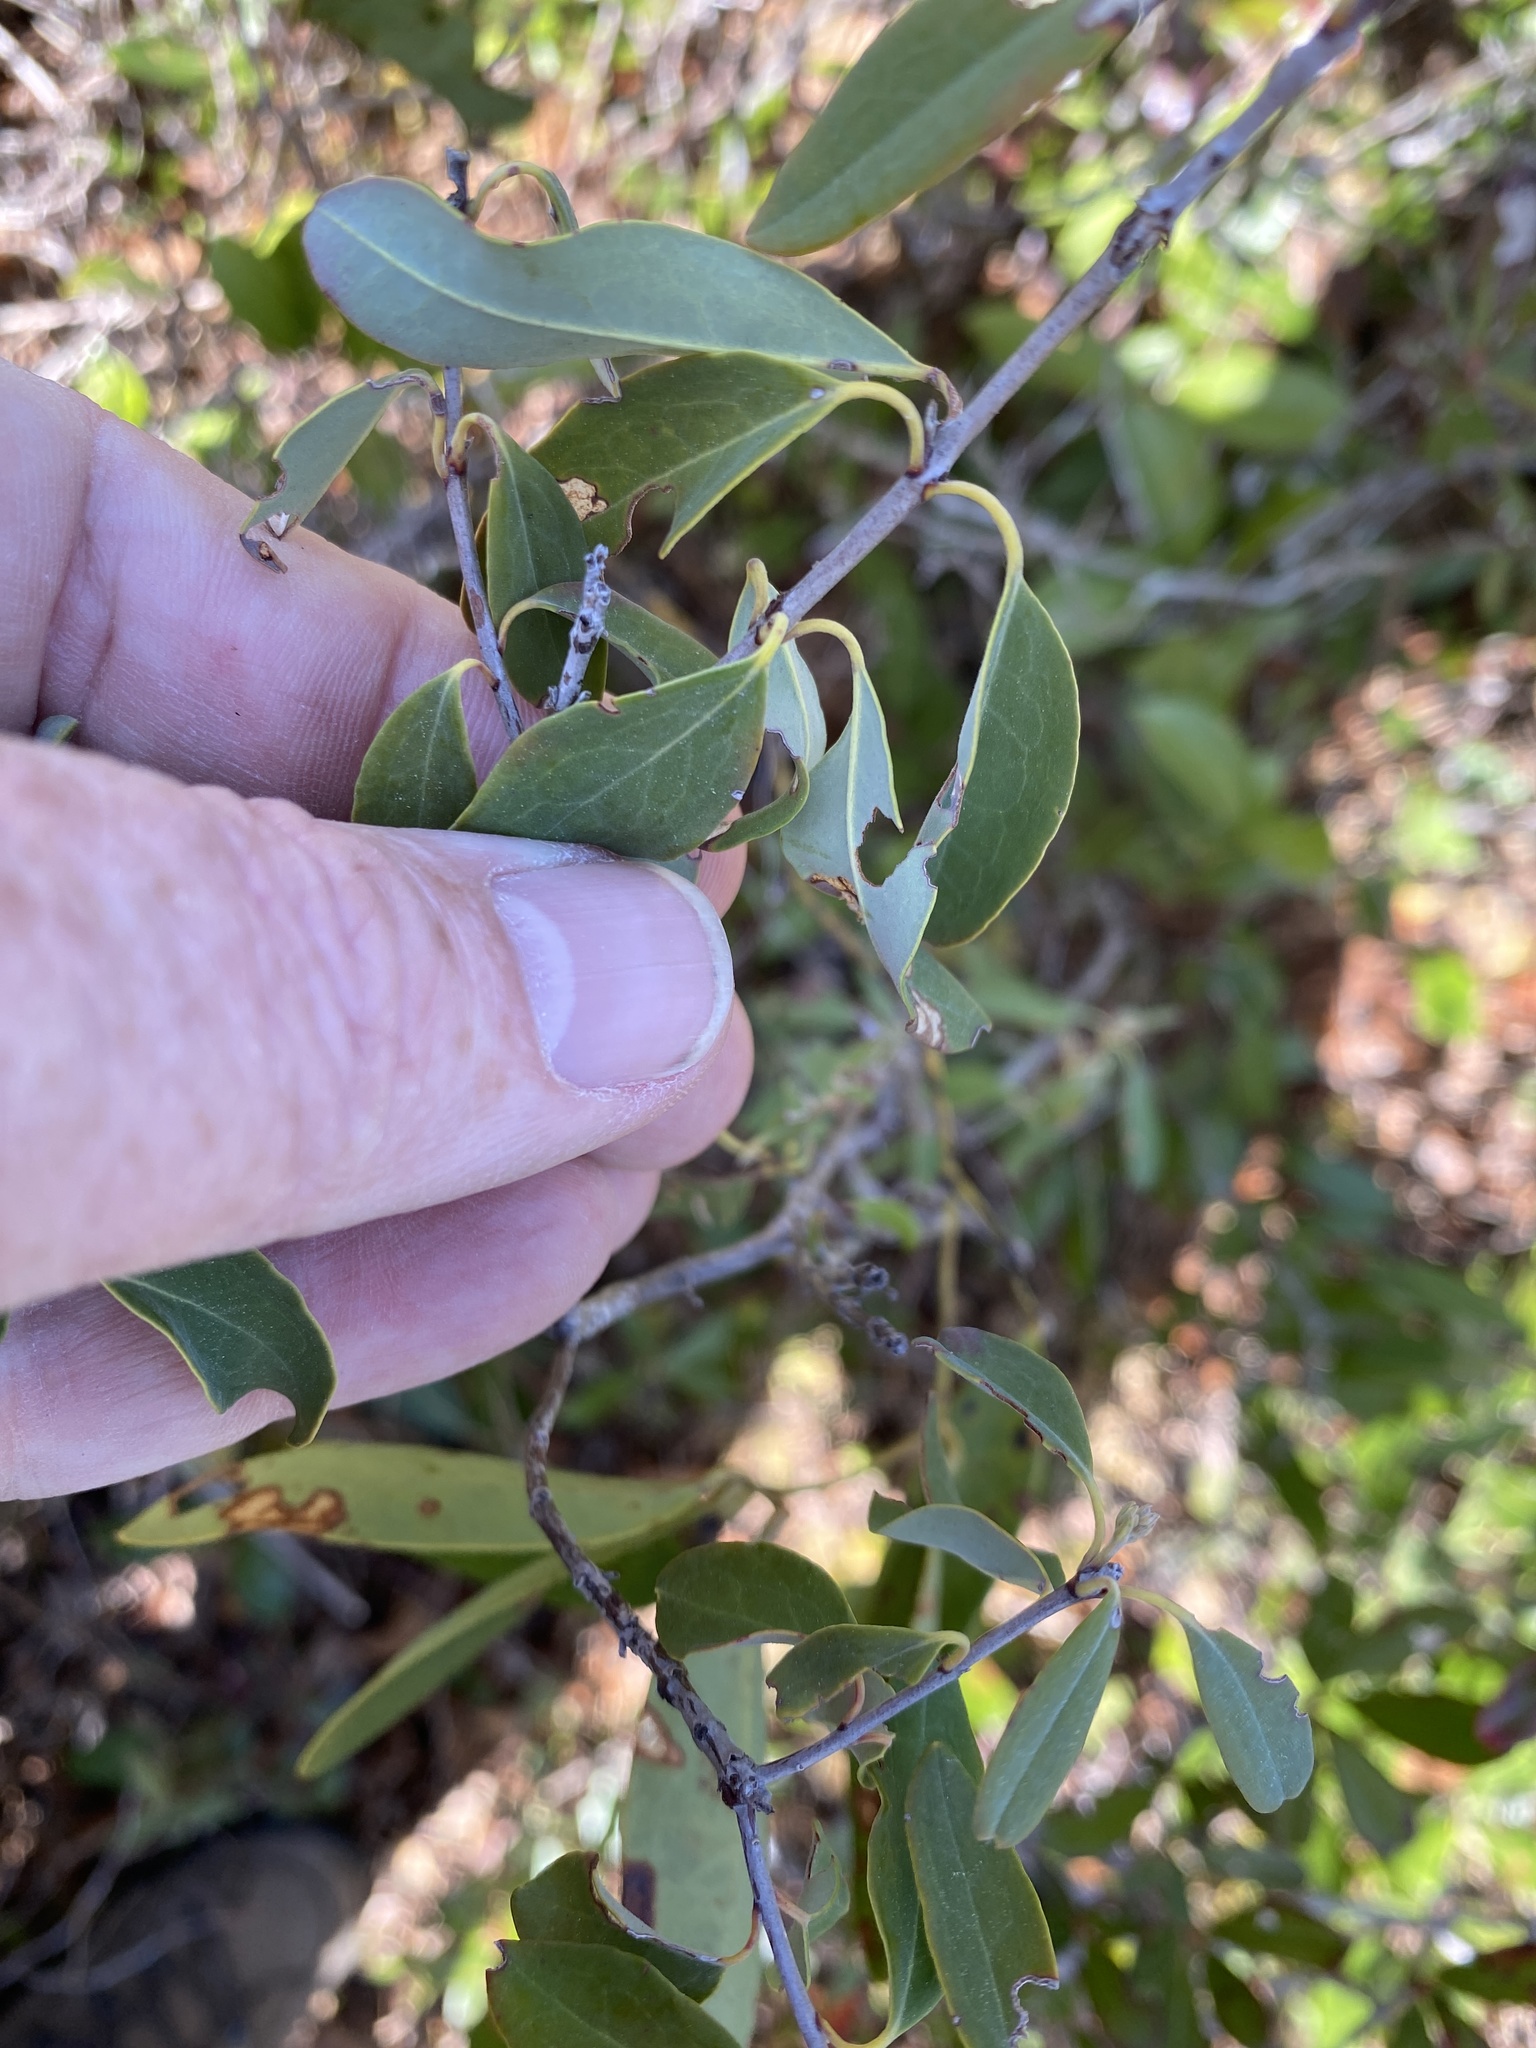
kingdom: Plantae
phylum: Tracheophyta
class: Magnoliopsida
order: Ericales
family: Ericaceae
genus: Kalmia
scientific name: Kalmia angustifolia
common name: Sheep-laurel
